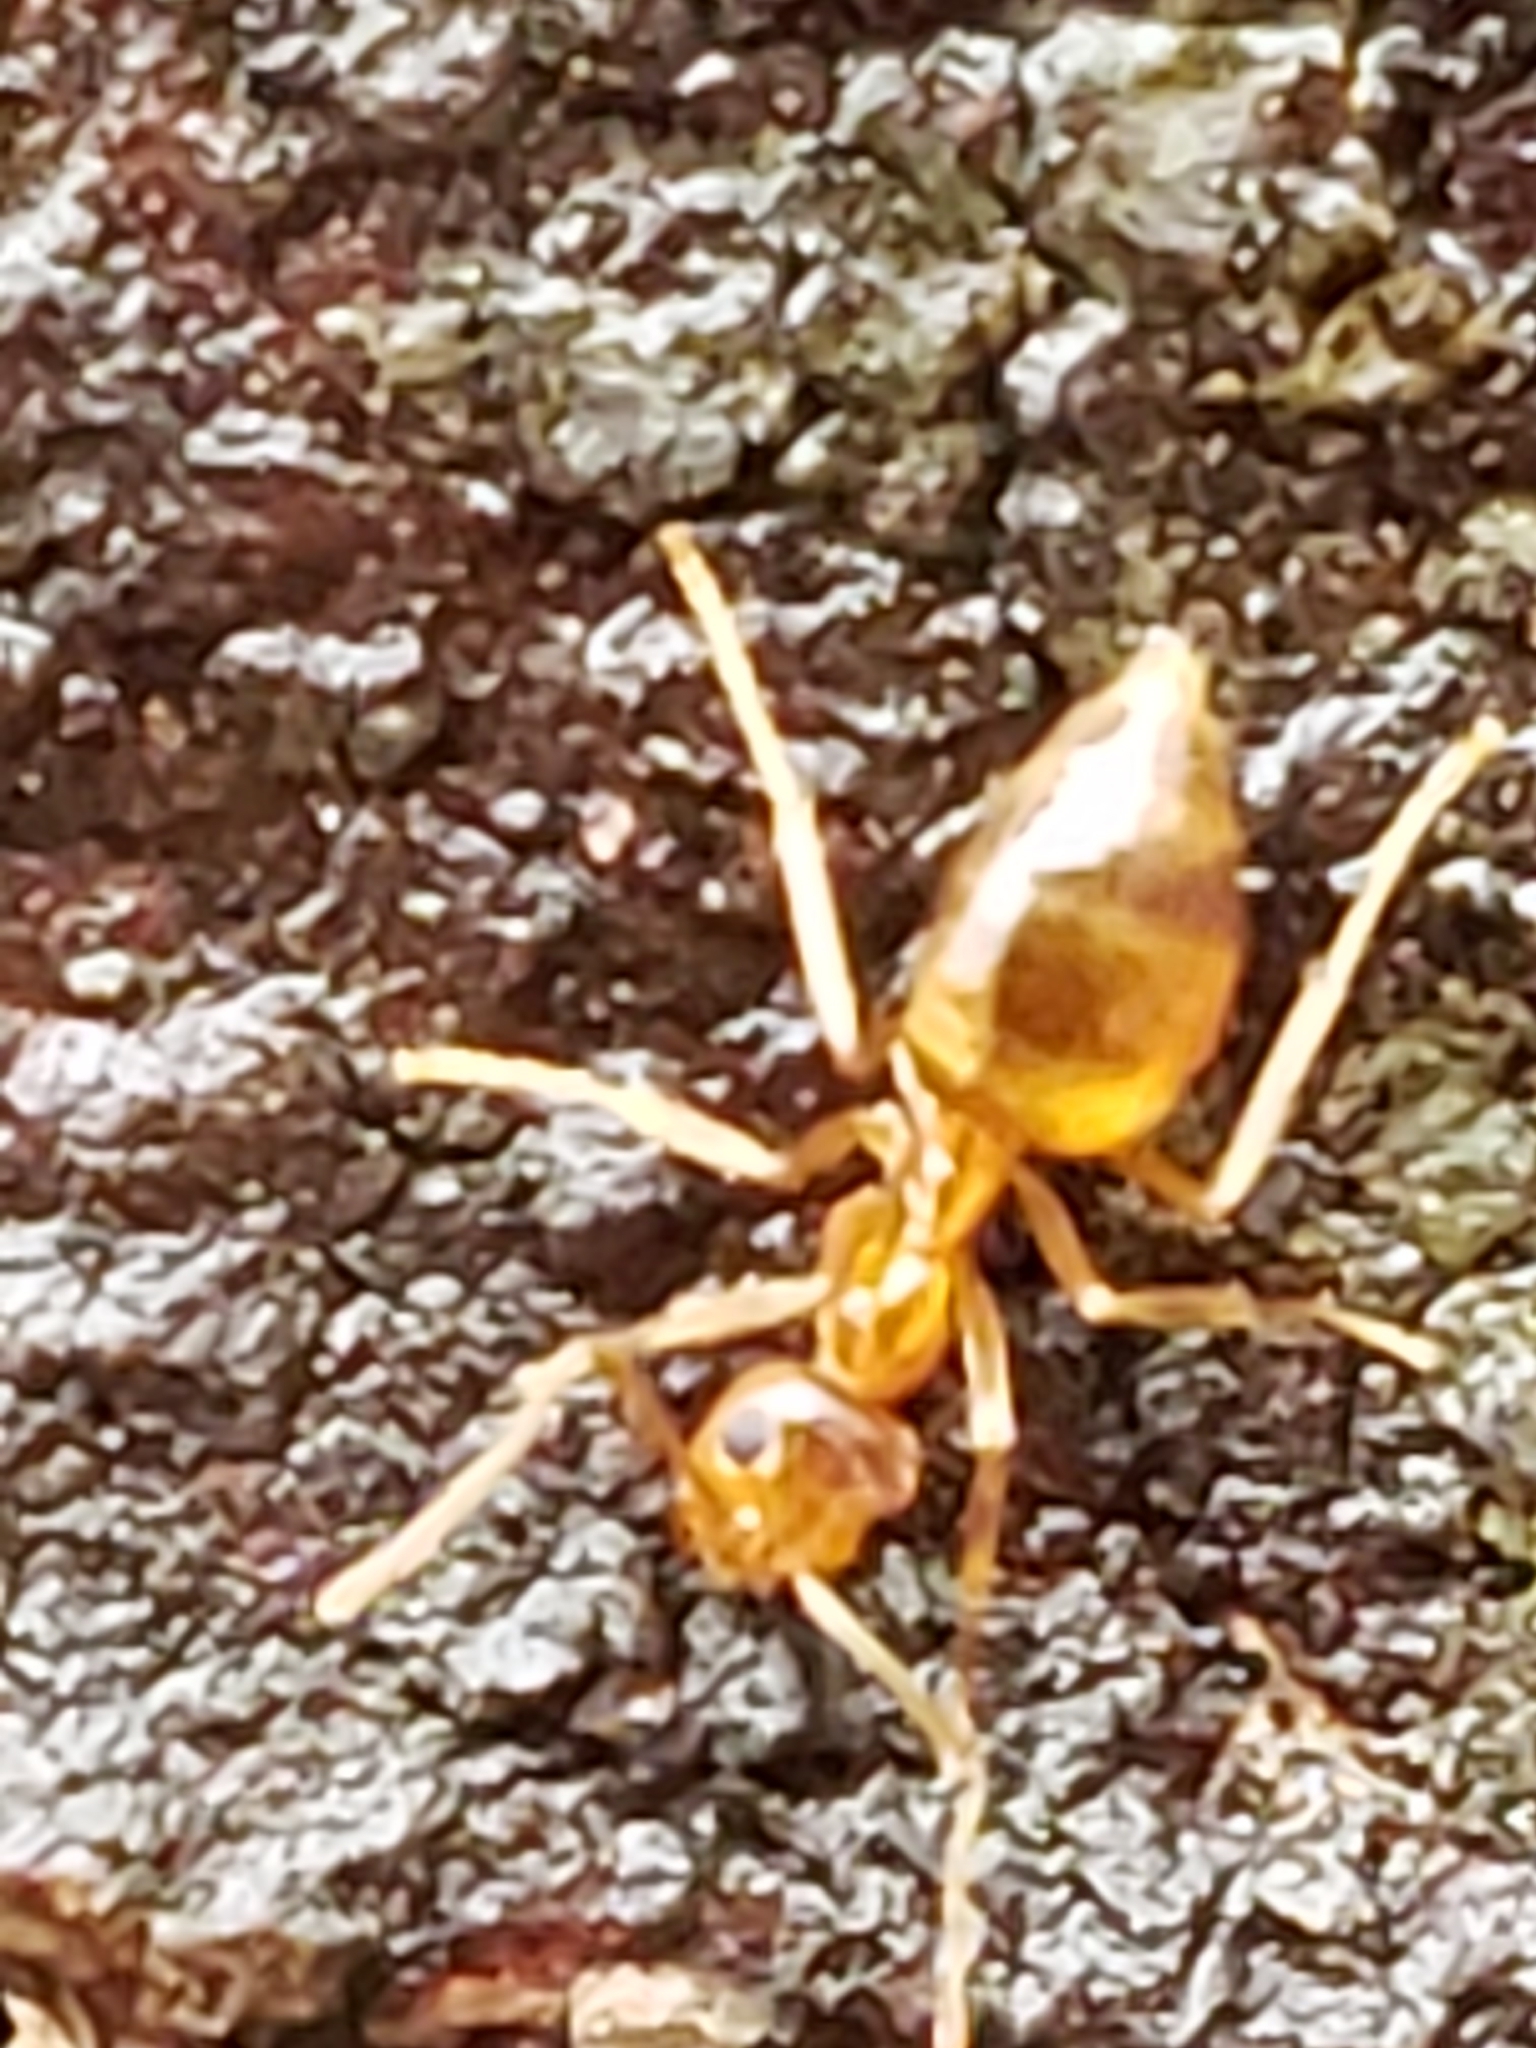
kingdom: Animalia
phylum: Arthropoda
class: Insecta
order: Hymenoptera
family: Formicidae
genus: Prenolepis
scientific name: Prenolepis imparis
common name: Small honey ant
